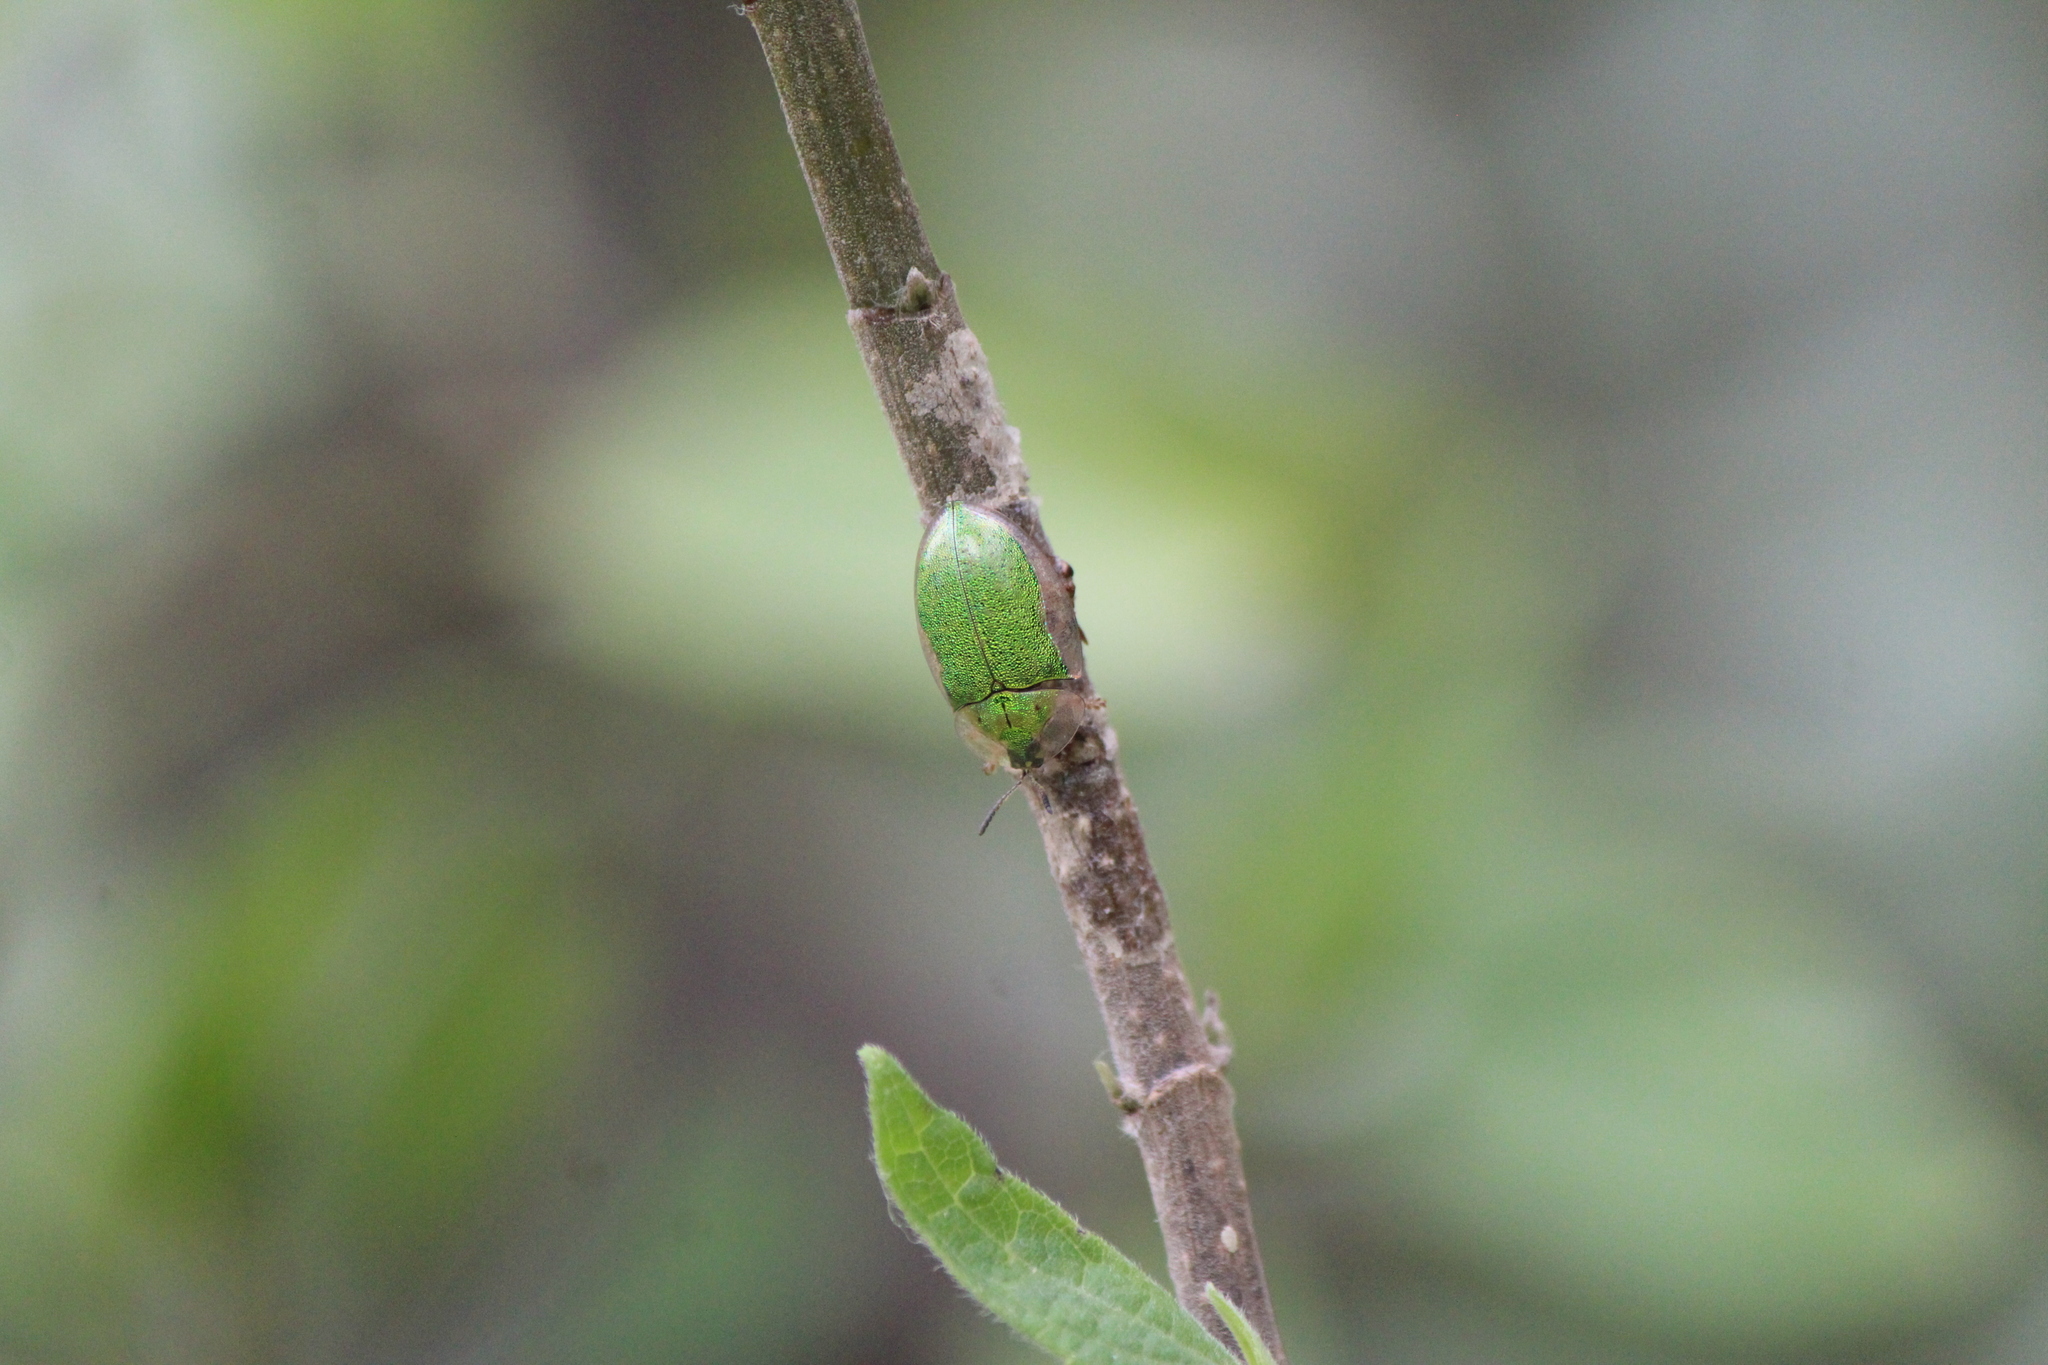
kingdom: Animalia
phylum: Arthropoda
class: Insecta
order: Coleoptera
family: Chrysomelidae
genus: Enagria
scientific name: Enagria ovata
